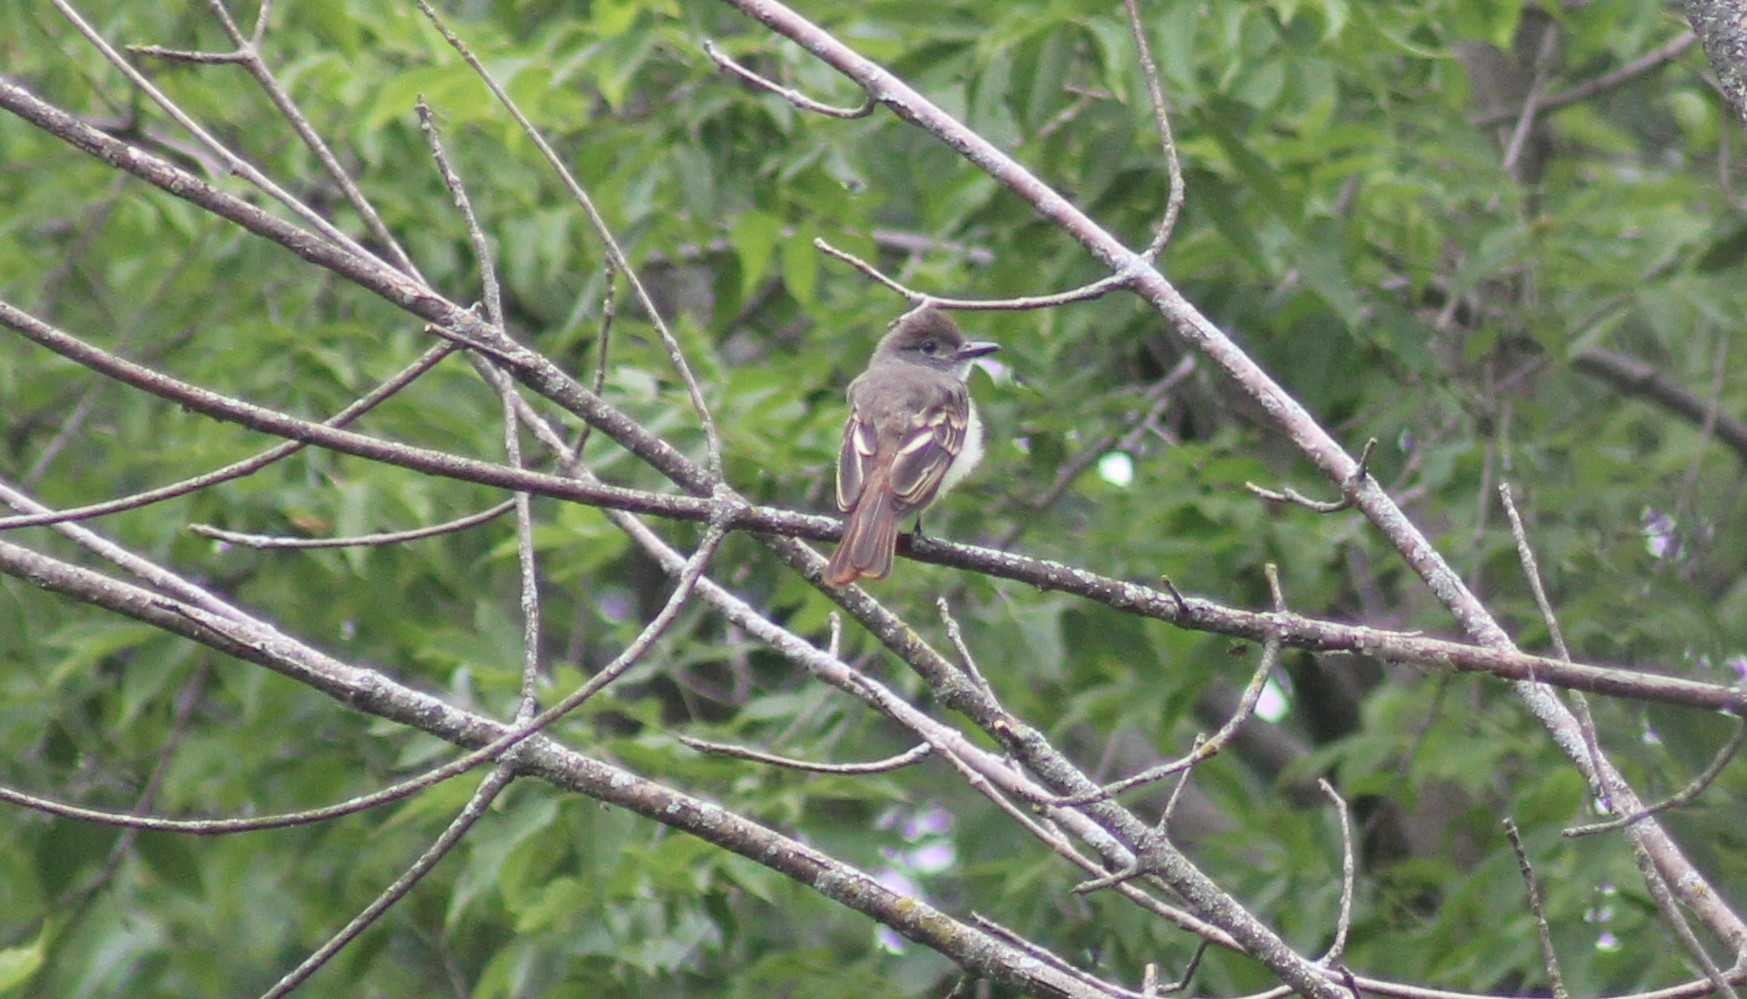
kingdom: Animalia
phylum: Chordata
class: Aves
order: Passeriformes
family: Tyrannidae
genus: Myiarchus
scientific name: Myiarchus crinitus
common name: Great crested flycatcher
